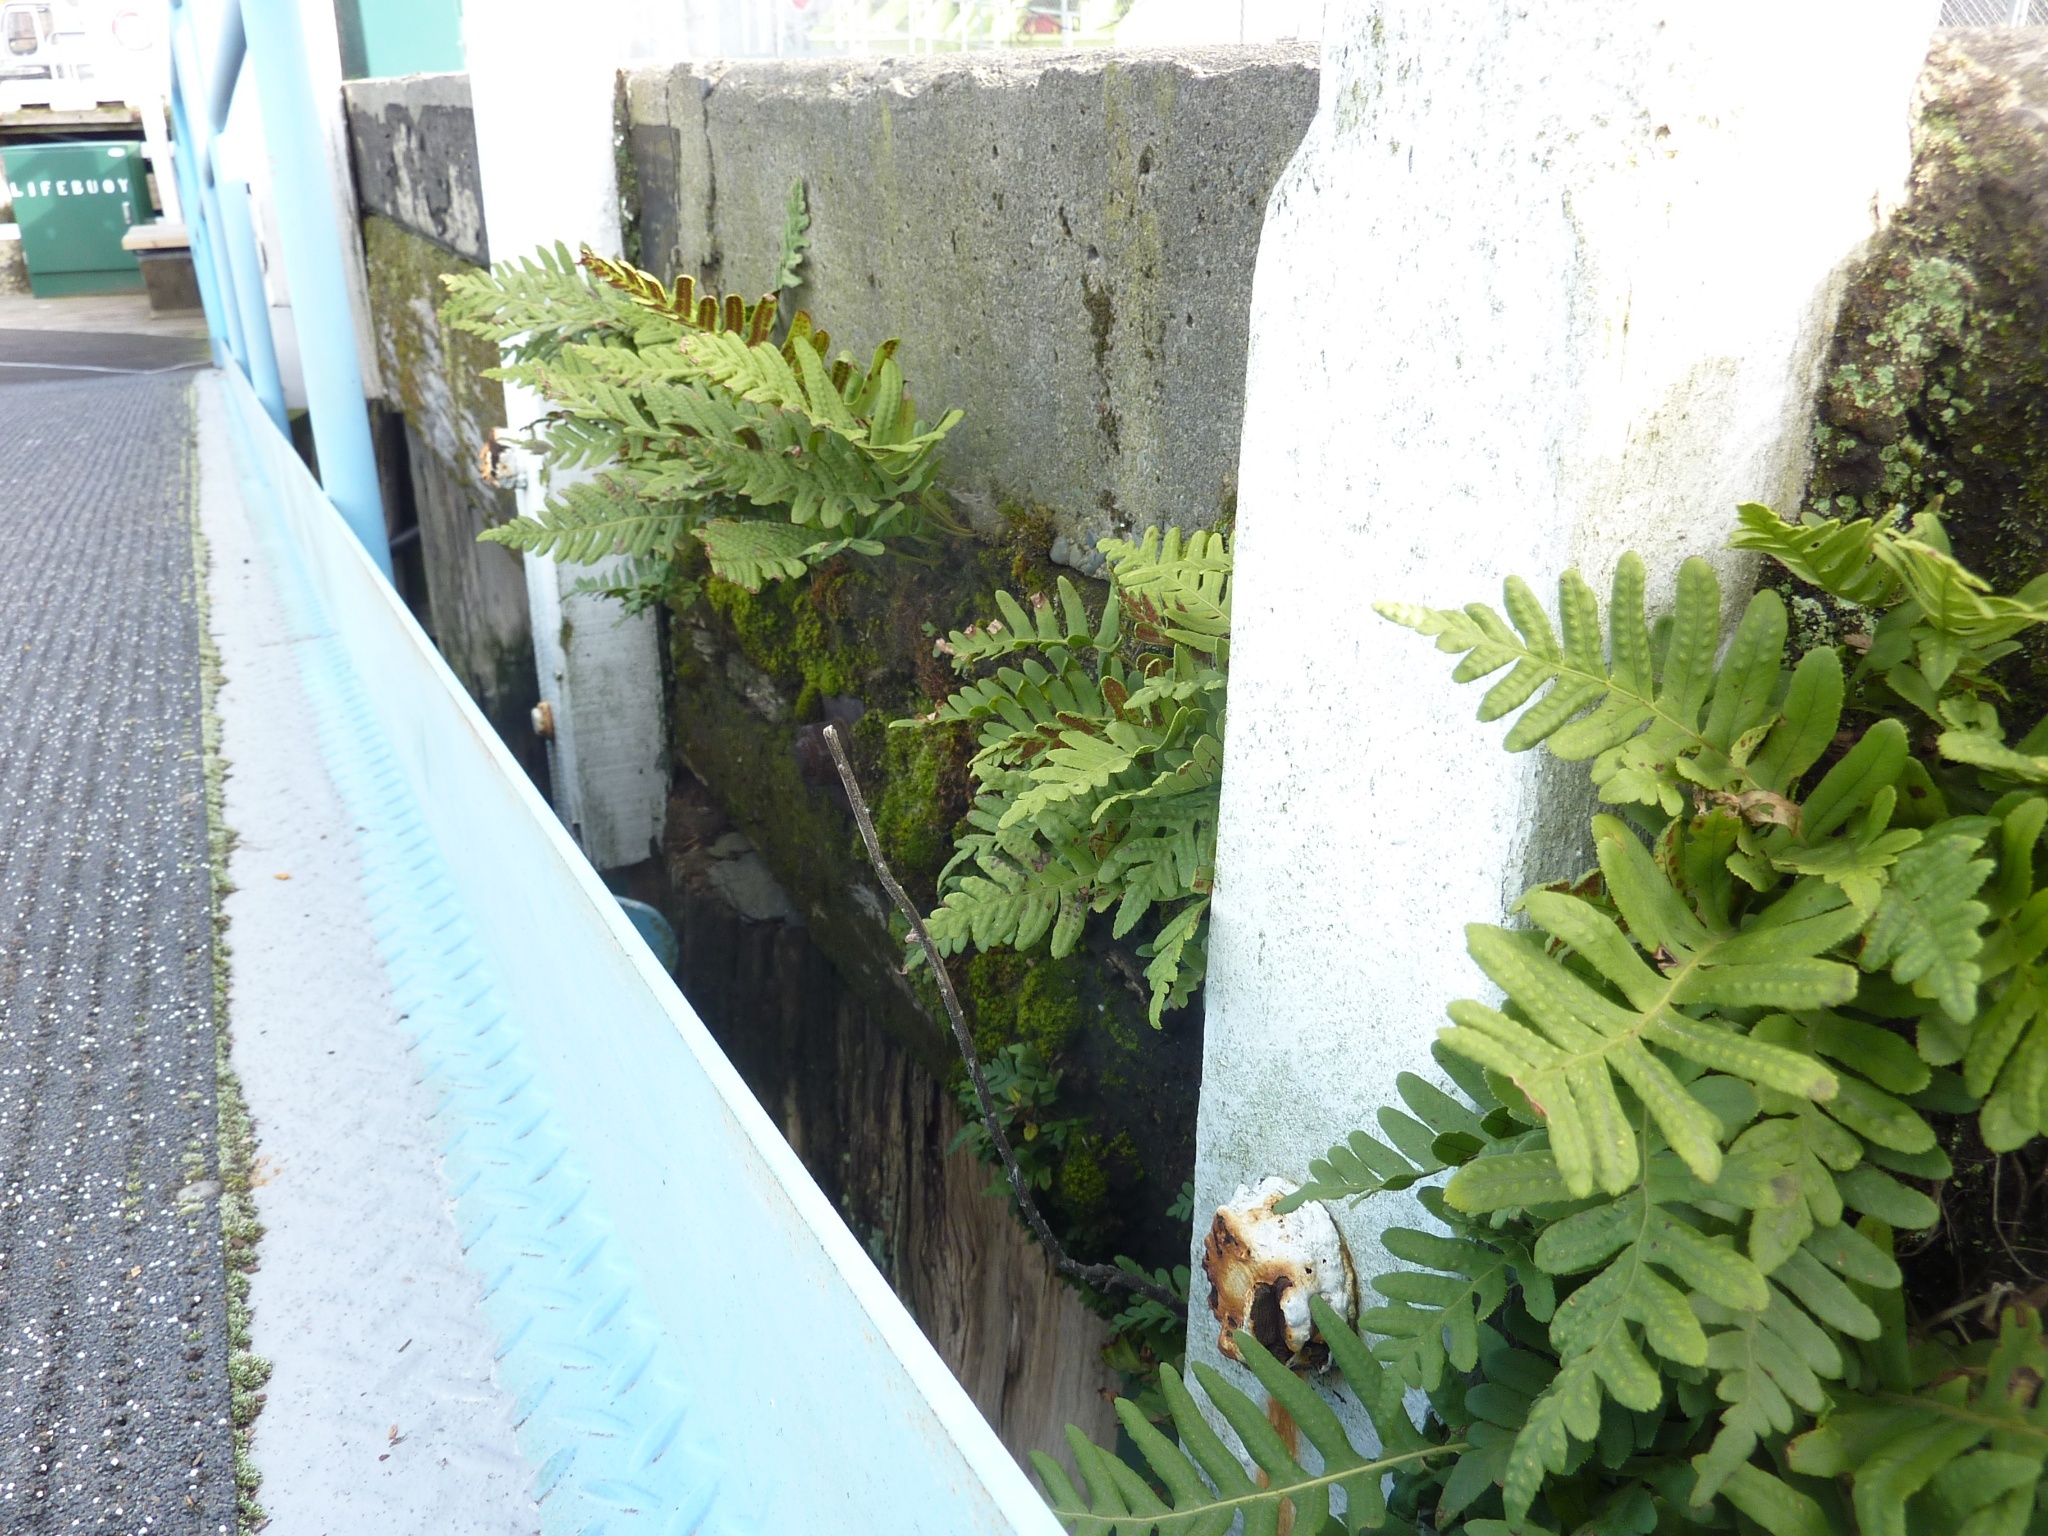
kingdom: Plantae
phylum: Tracheophyta
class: Polypodiopsida
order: Polypodiales
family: Polypodiaceae
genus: Polypodium
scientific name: Polypodium vulgare
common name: Common polypody
